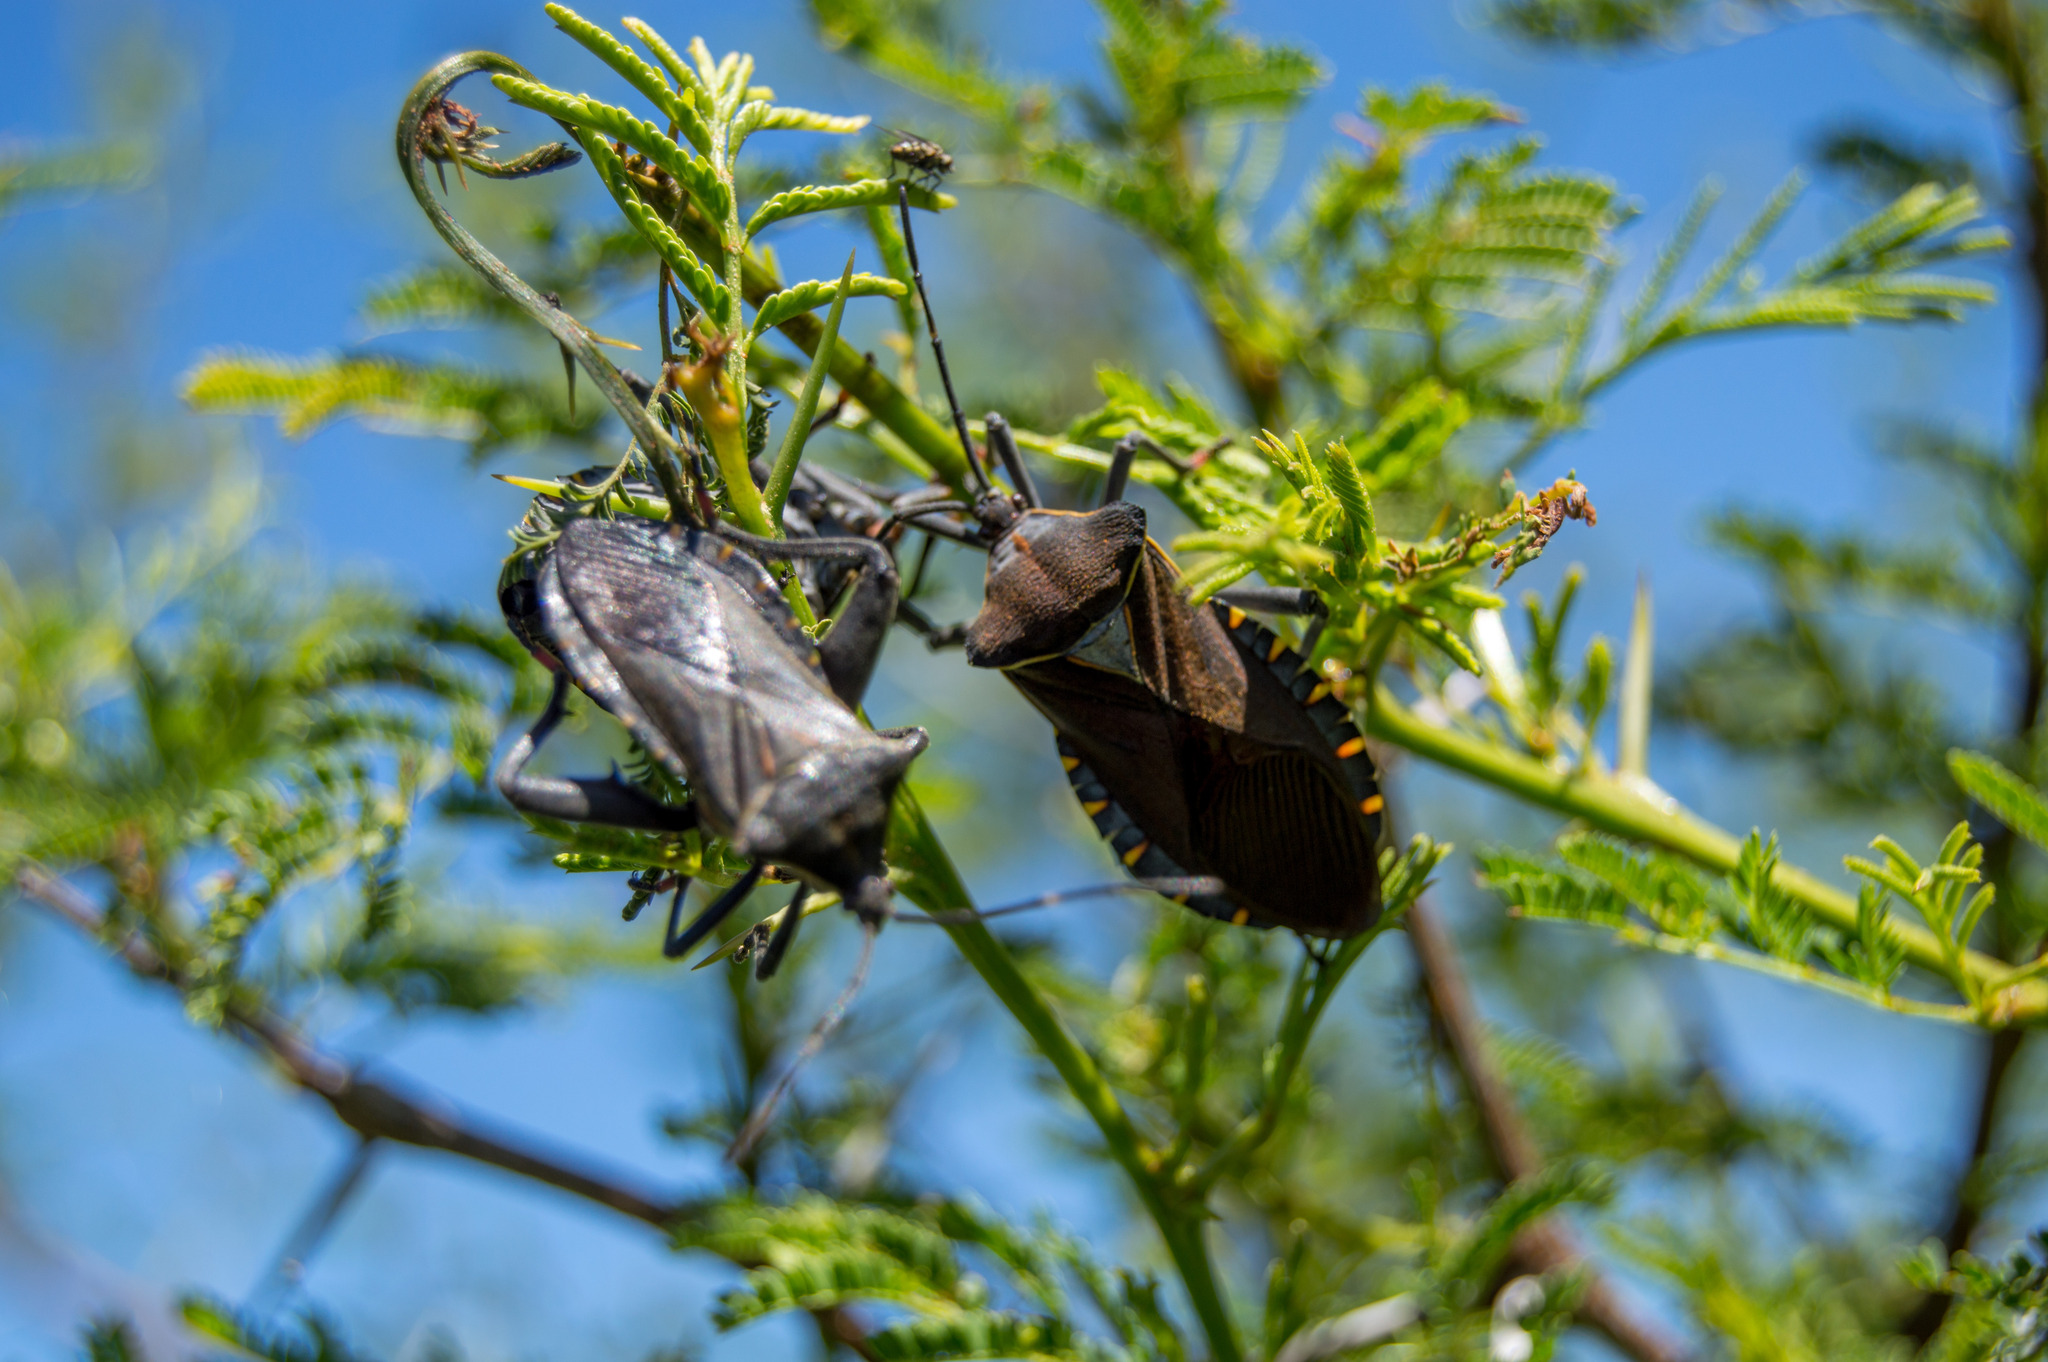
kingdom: Animalia
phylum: Arthropoda
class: Insecta
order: Hemiptera
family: Coreidae
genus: Pachylis
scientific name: Pachylis argentinus
